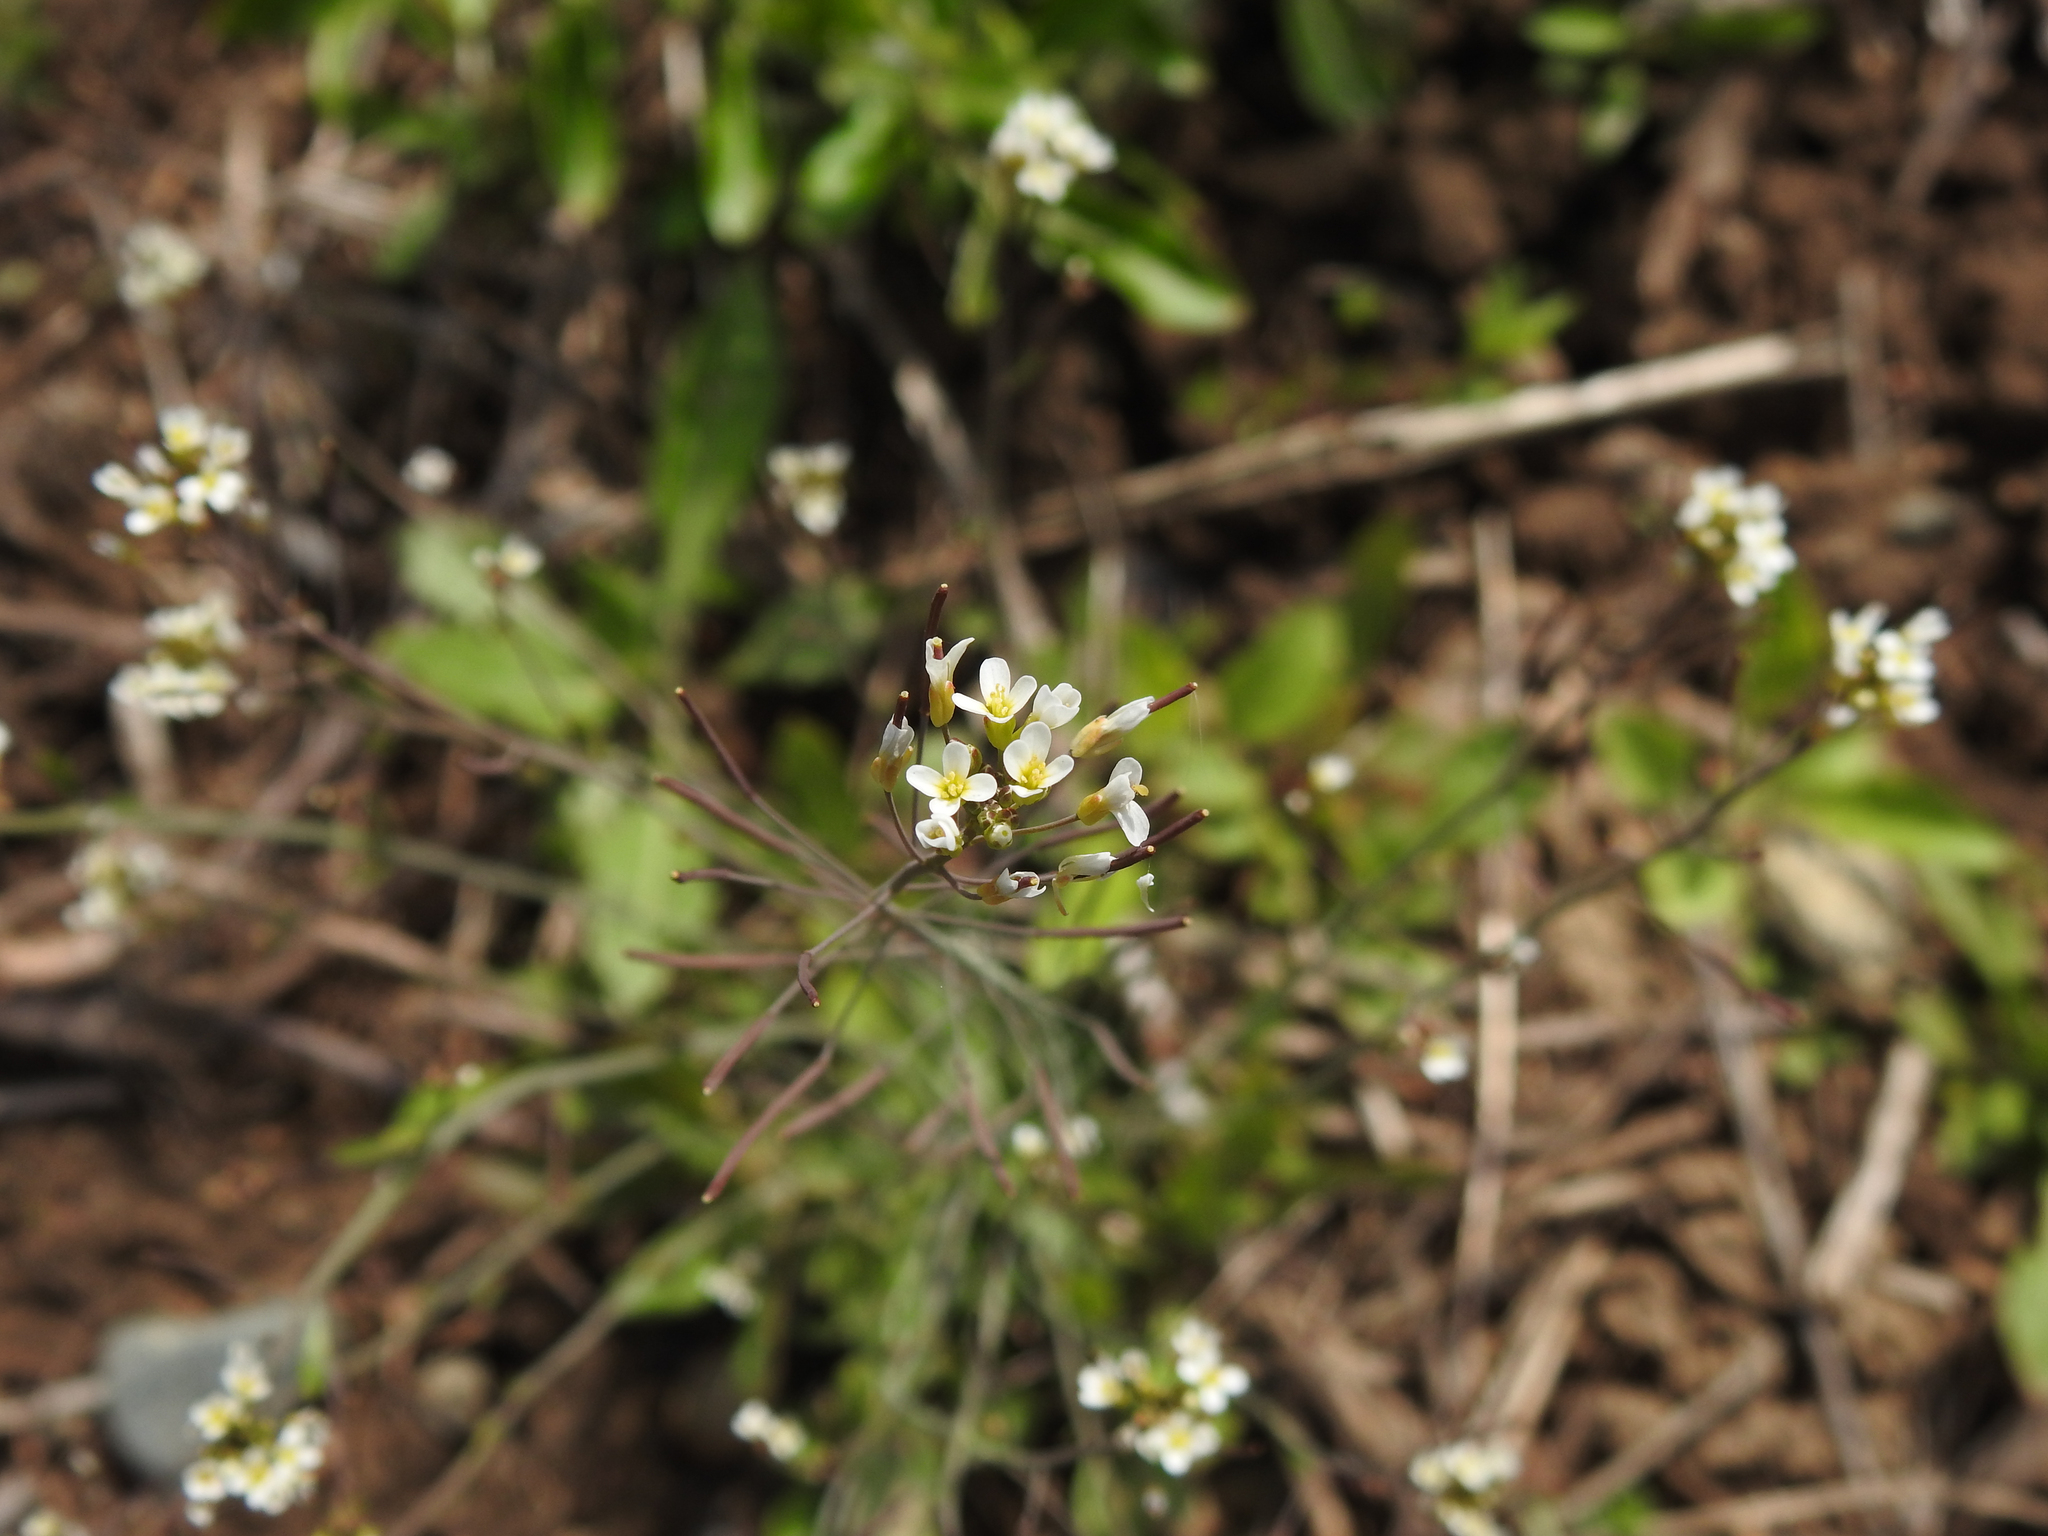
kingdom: Plantae
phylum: Tracheophyta
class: Magnoliopsida
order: Brassicales
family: Brassicaceae
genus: Arabidopsis
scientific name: Arabidopsis thaliana
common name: Thale cress
